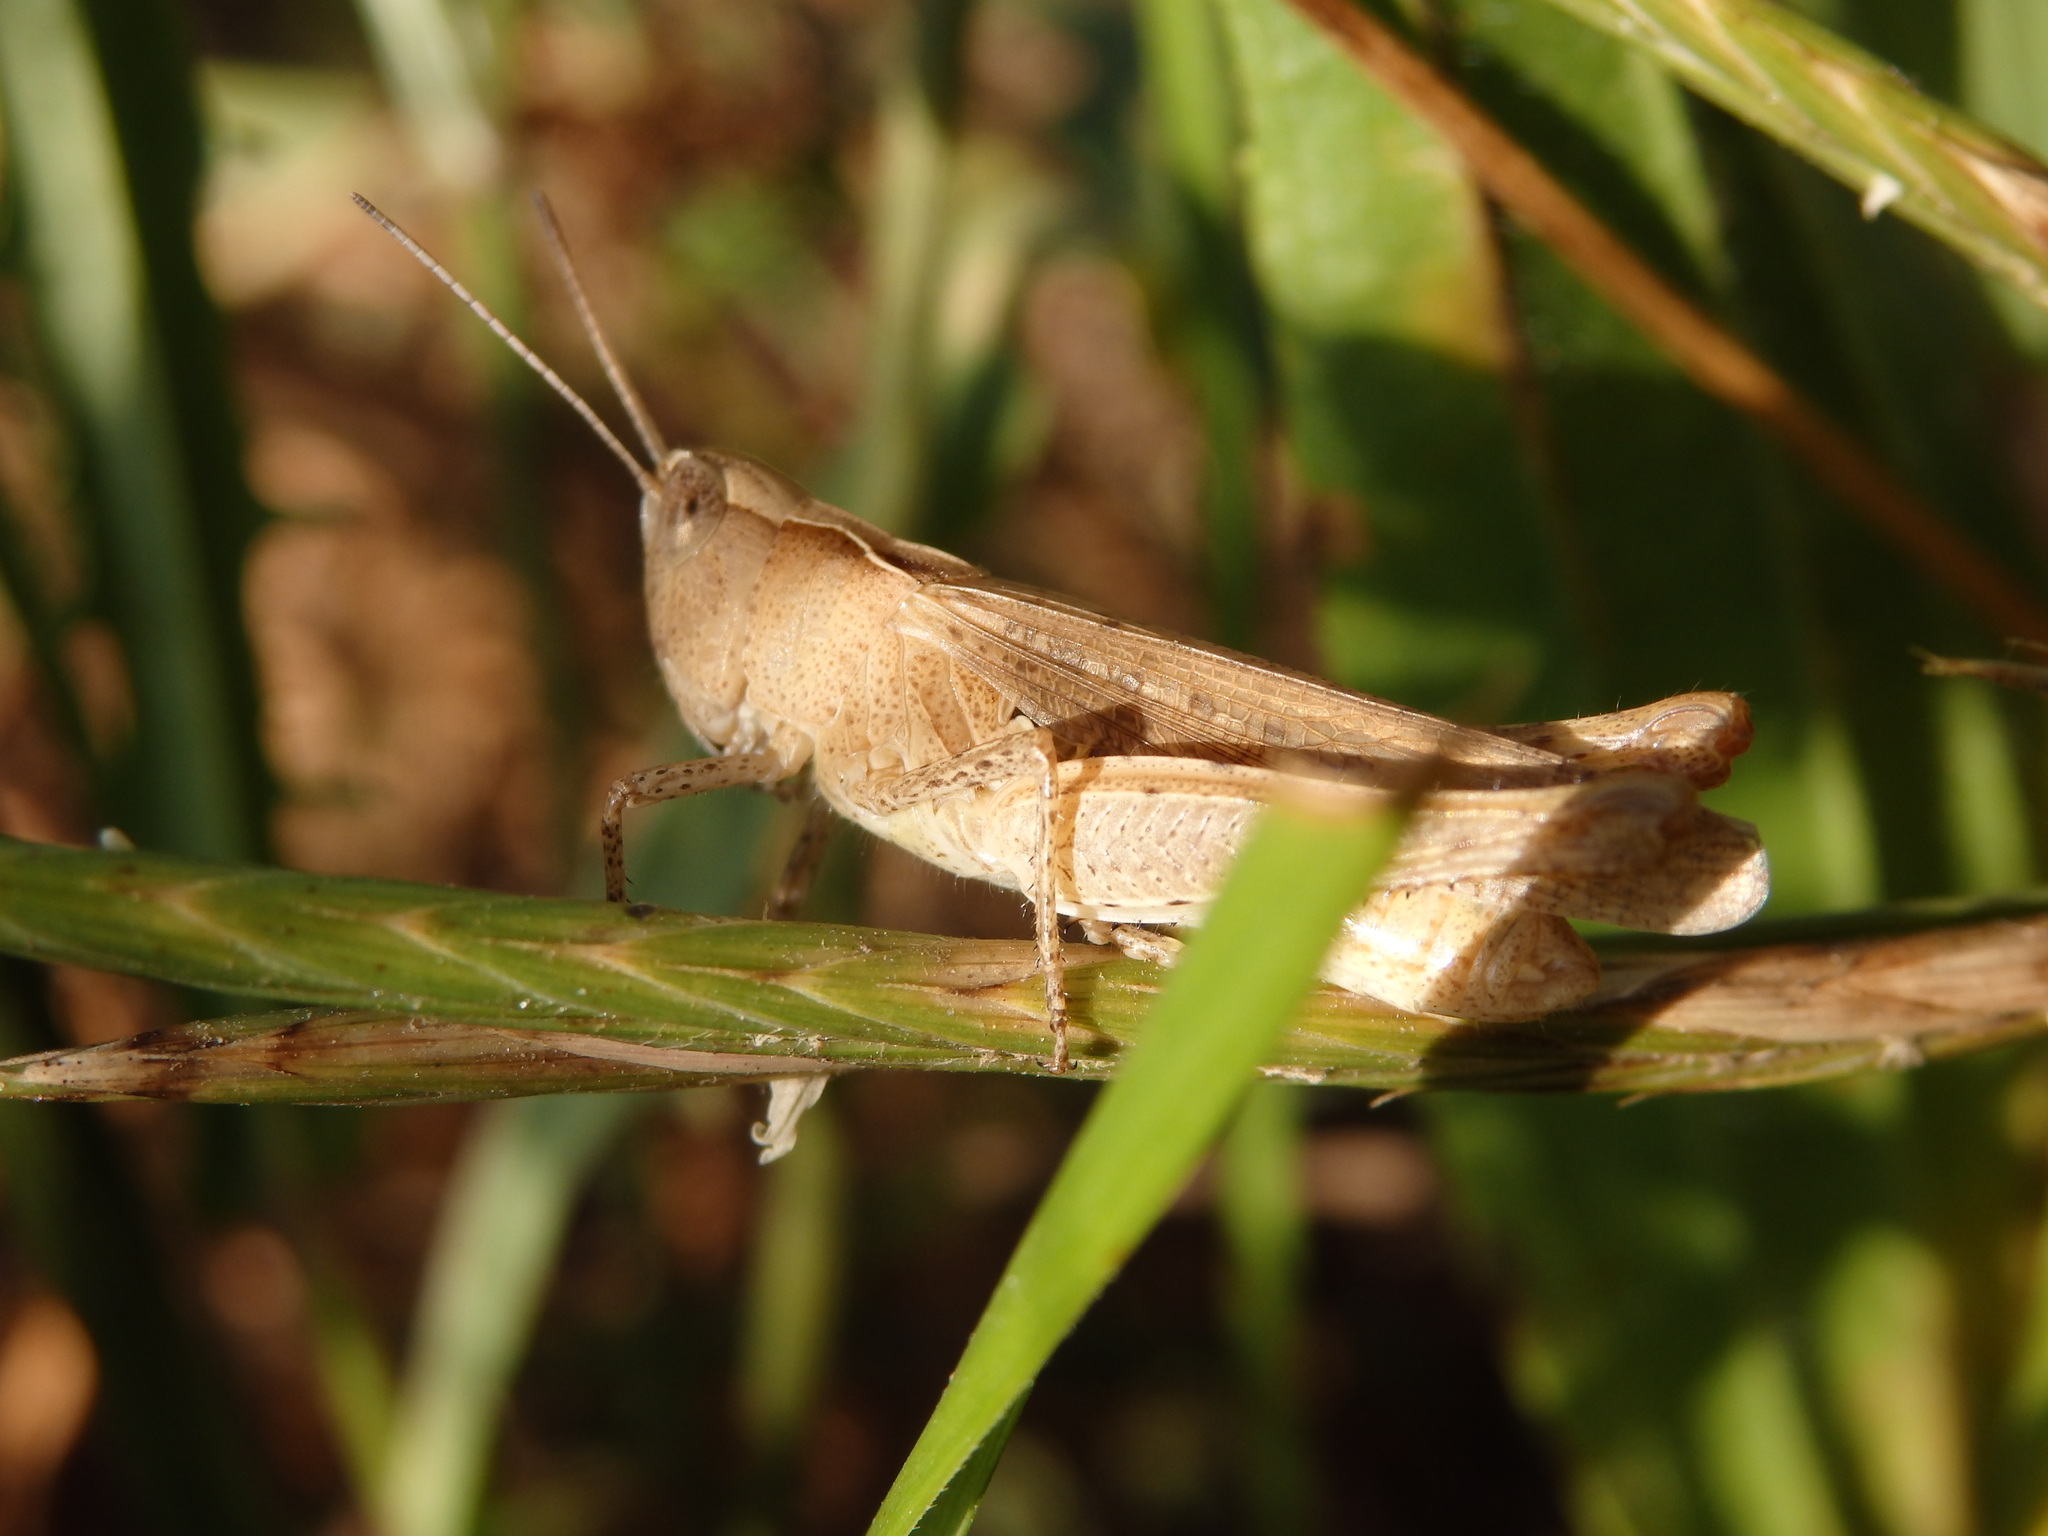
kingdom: Animalia
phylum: Arthropoda
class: Insecta
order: Orthoptera
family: Acrididae
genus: Chorthippus
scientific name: Chorthippus vagans
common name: Heath grasshopper
